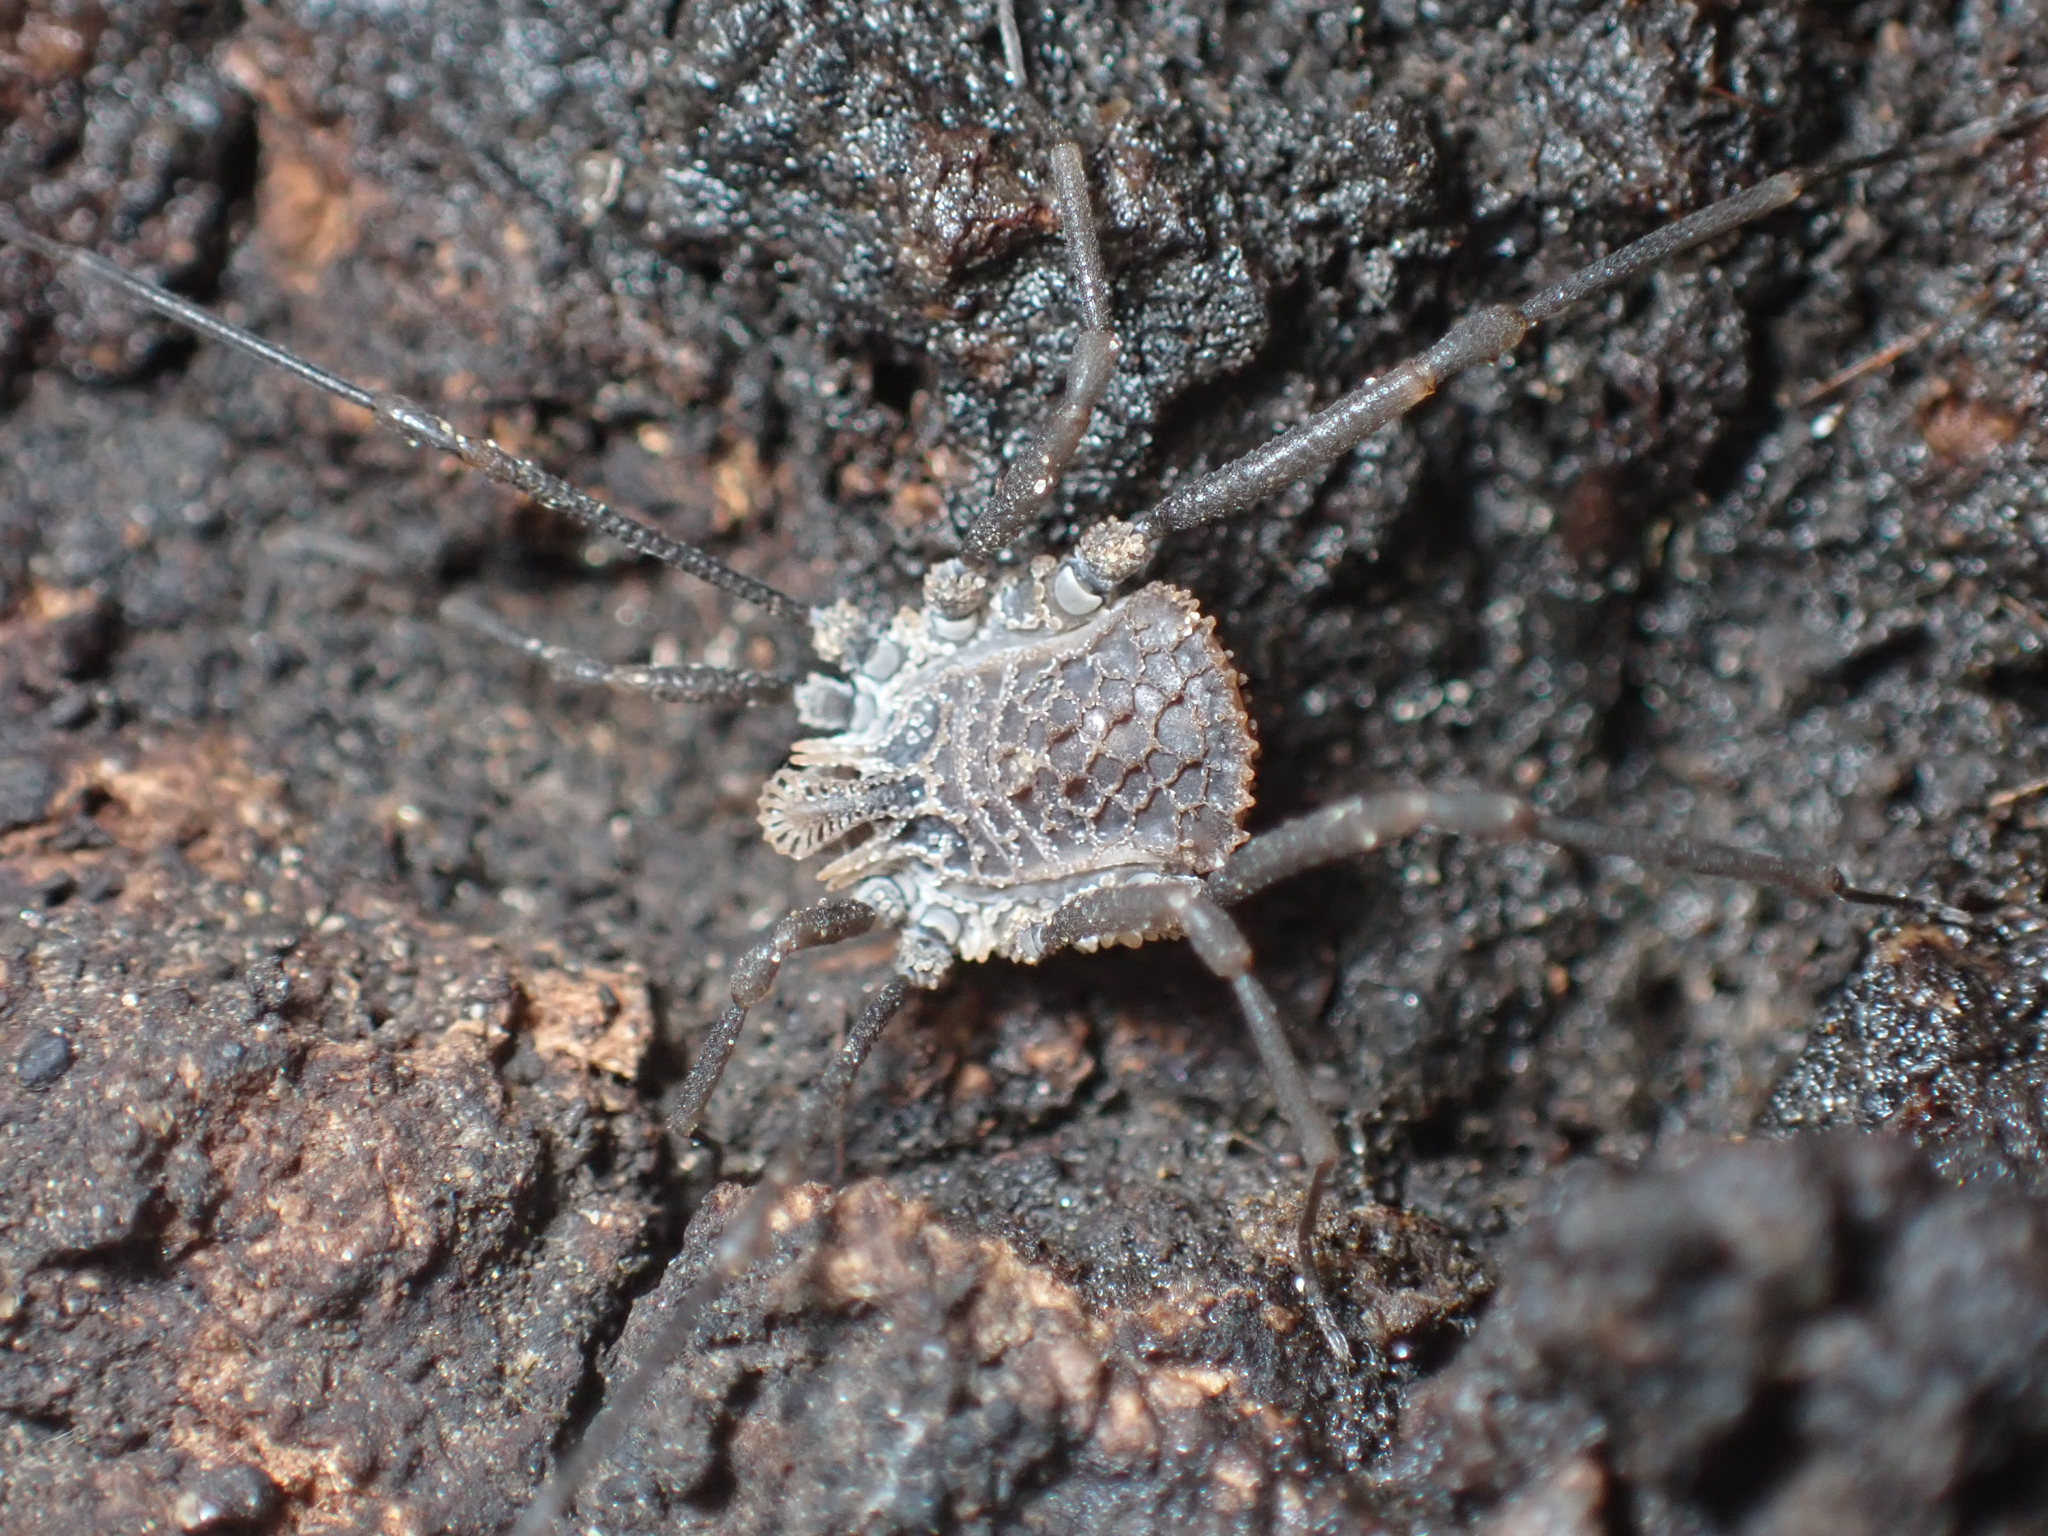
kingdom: Animalia
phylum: Arthropoda
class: Arachnida
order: Opiliones
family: Nemastomatidae
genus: Ortholasma
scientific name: Ortholasma rugosum
